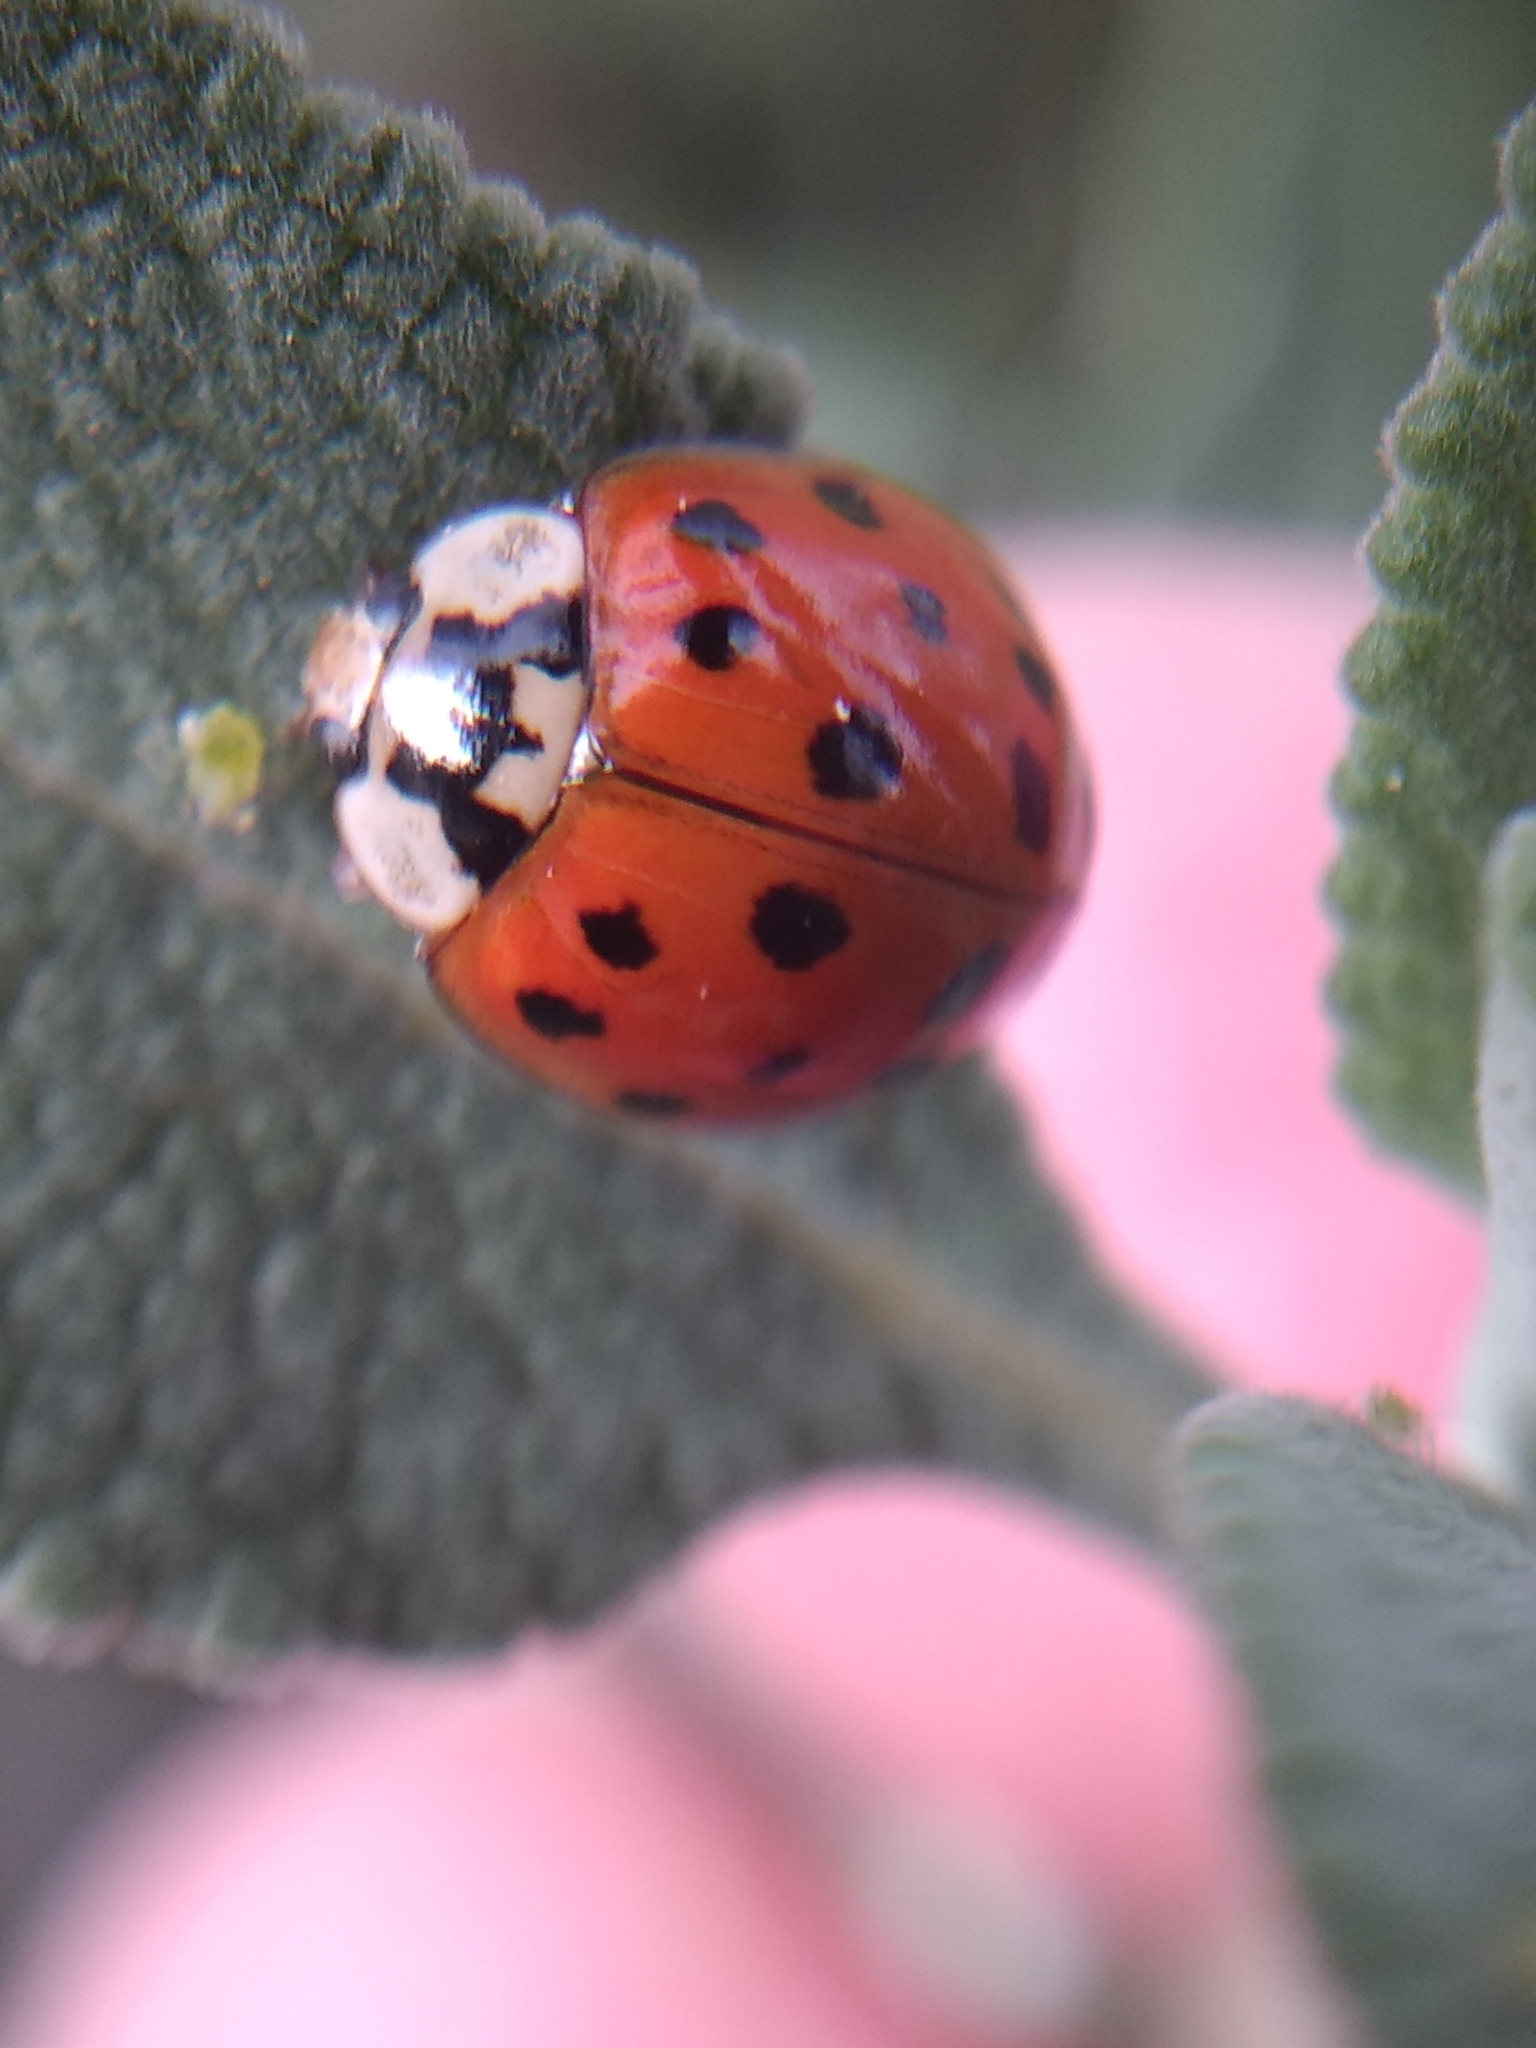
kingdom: Animalia
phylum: Arthropoda
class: Insecta
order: Coleoptera
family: Coccinellidae
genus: Harmonia
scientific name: Harmonia axyridis
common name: Harlequin ladybird
